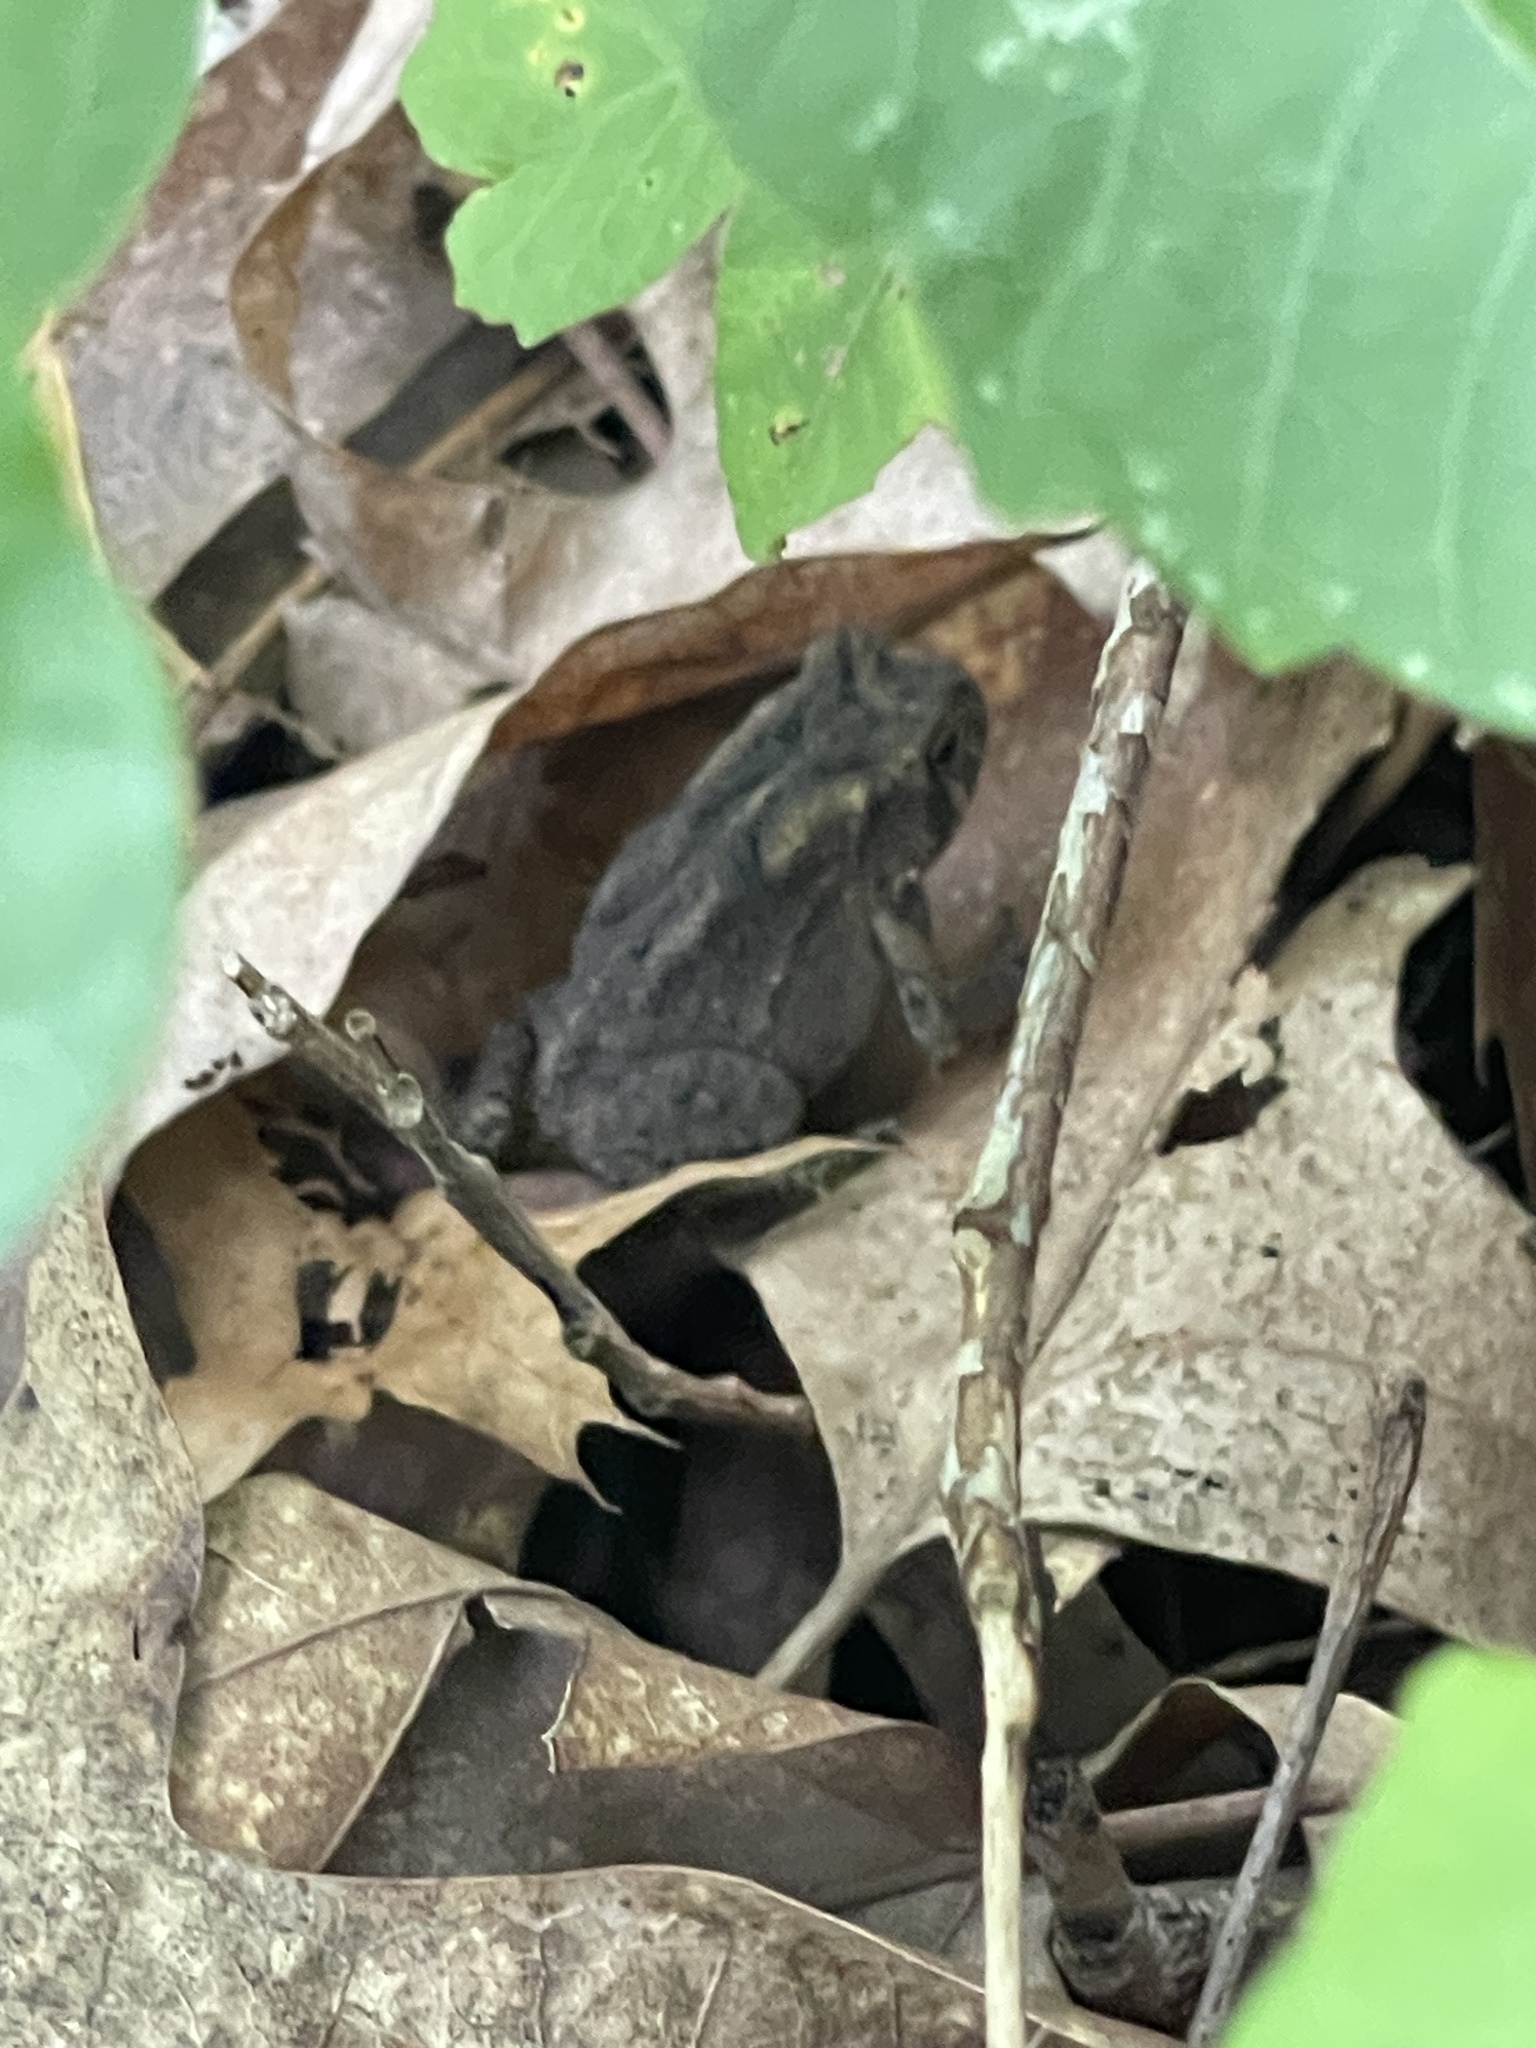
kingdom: Animalia
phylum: Chordata
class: Amphibia
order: Anura
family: Bufonidae
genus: Anaxyrus
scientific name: Anaxyrus americanus
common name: American toad
